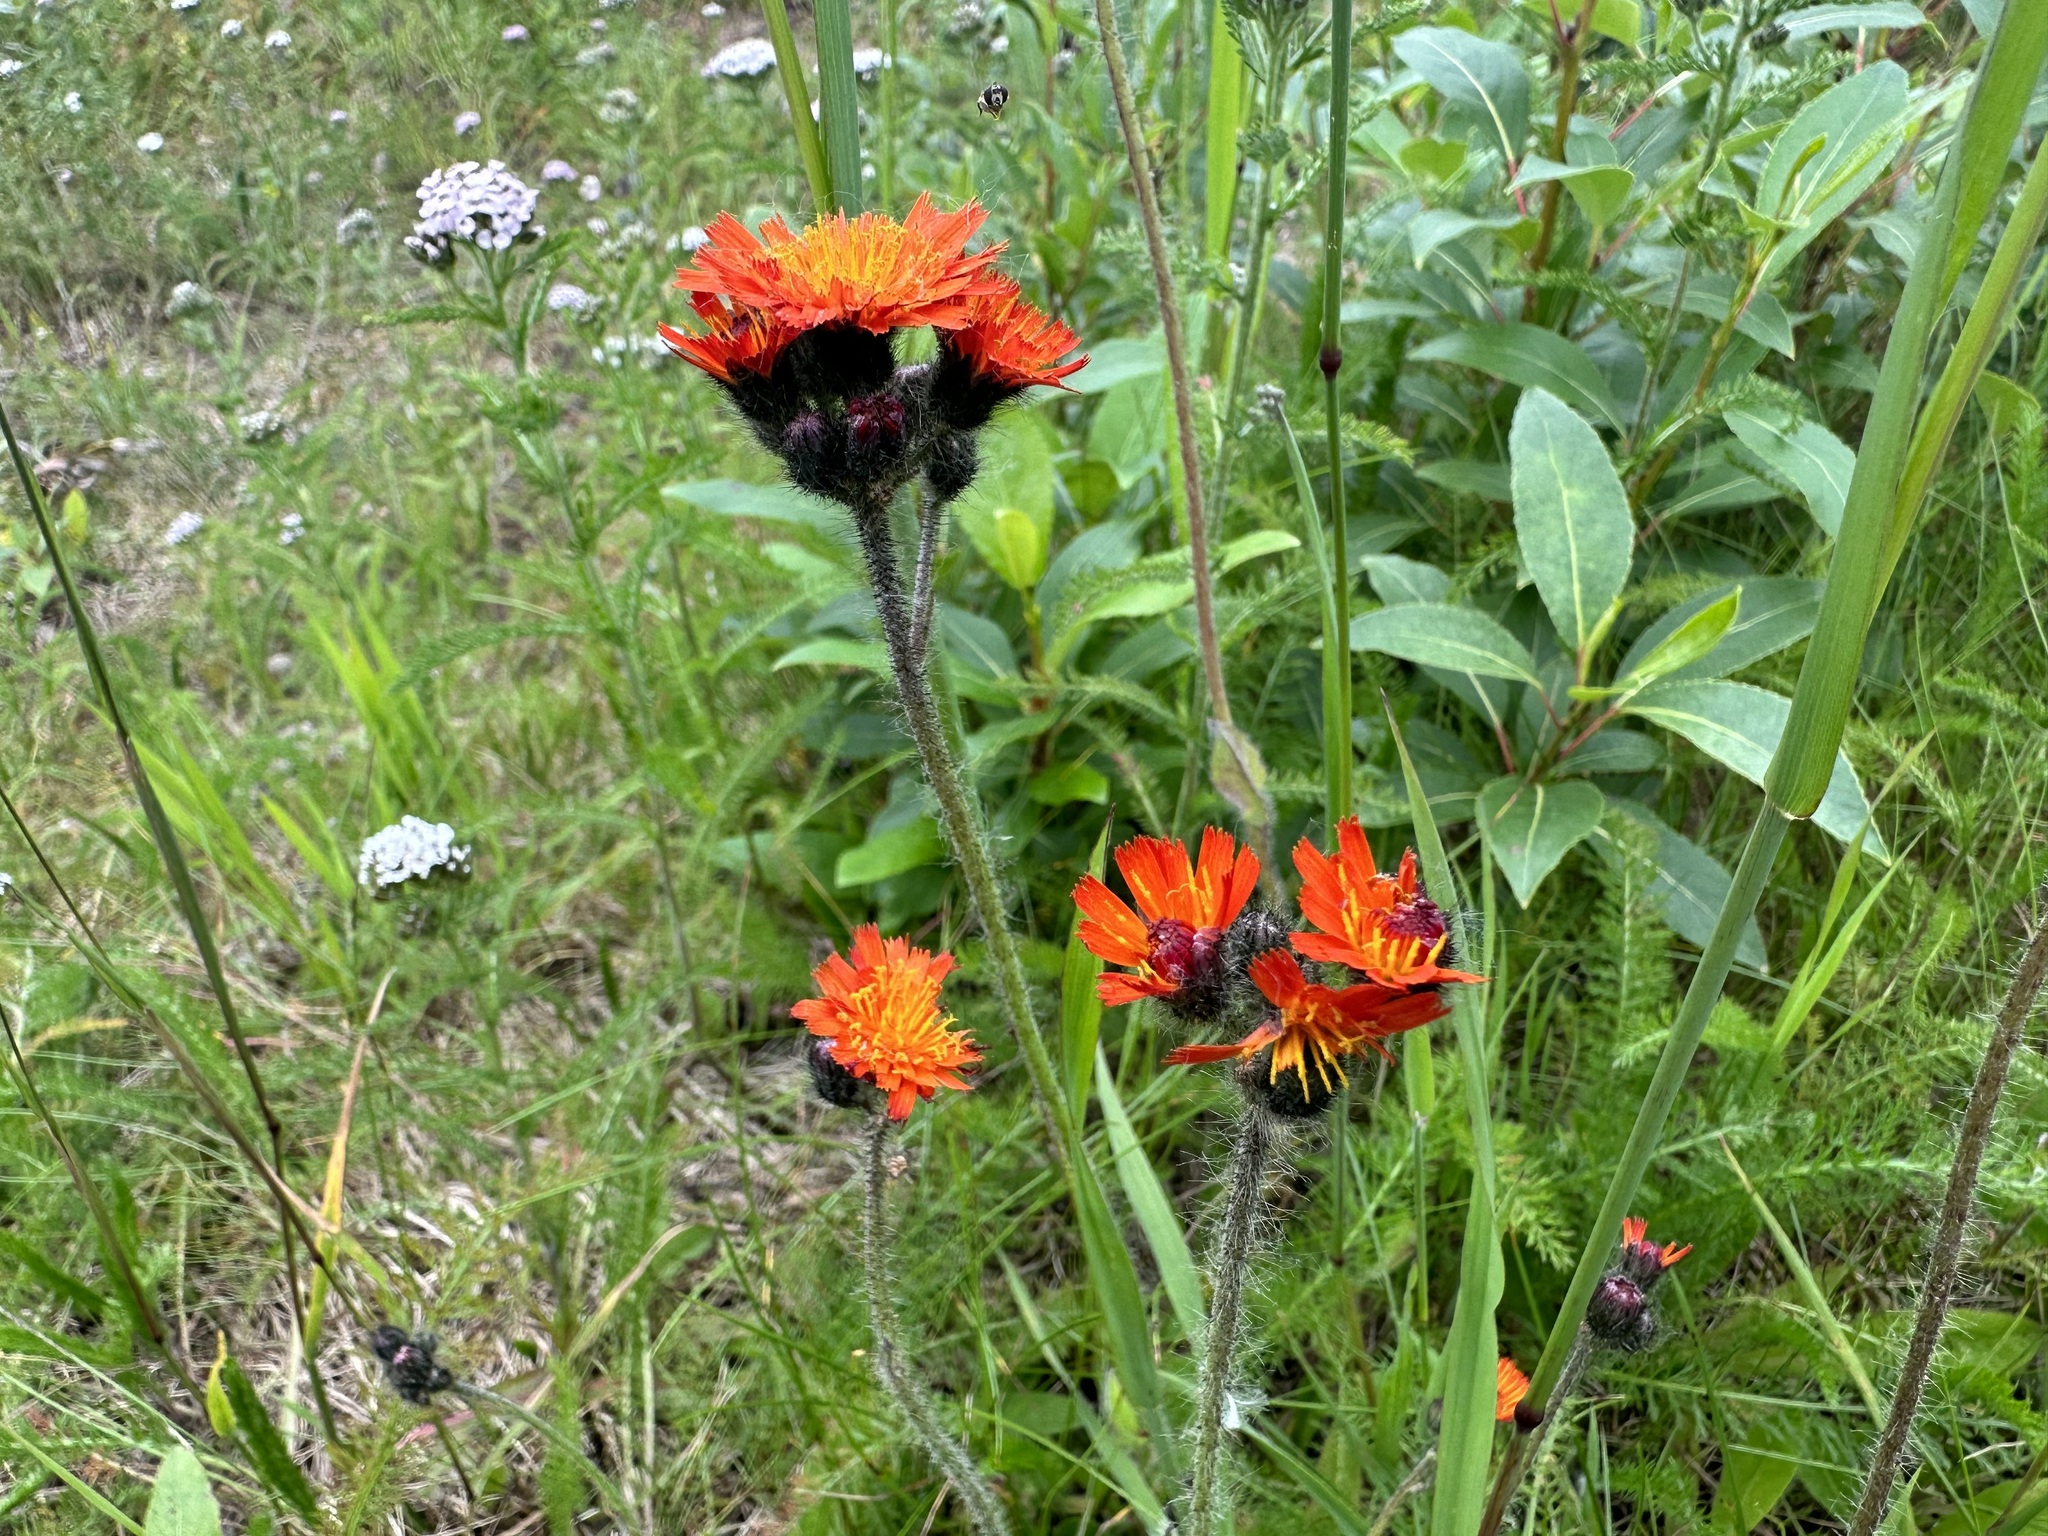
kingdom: Plantae
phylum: Tracheophyta
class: Magnoliopsida
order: Asterales
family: Asteraceae
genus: Pilosella
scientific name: Pilosella aurantiaca
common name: Fox-and-cubs
